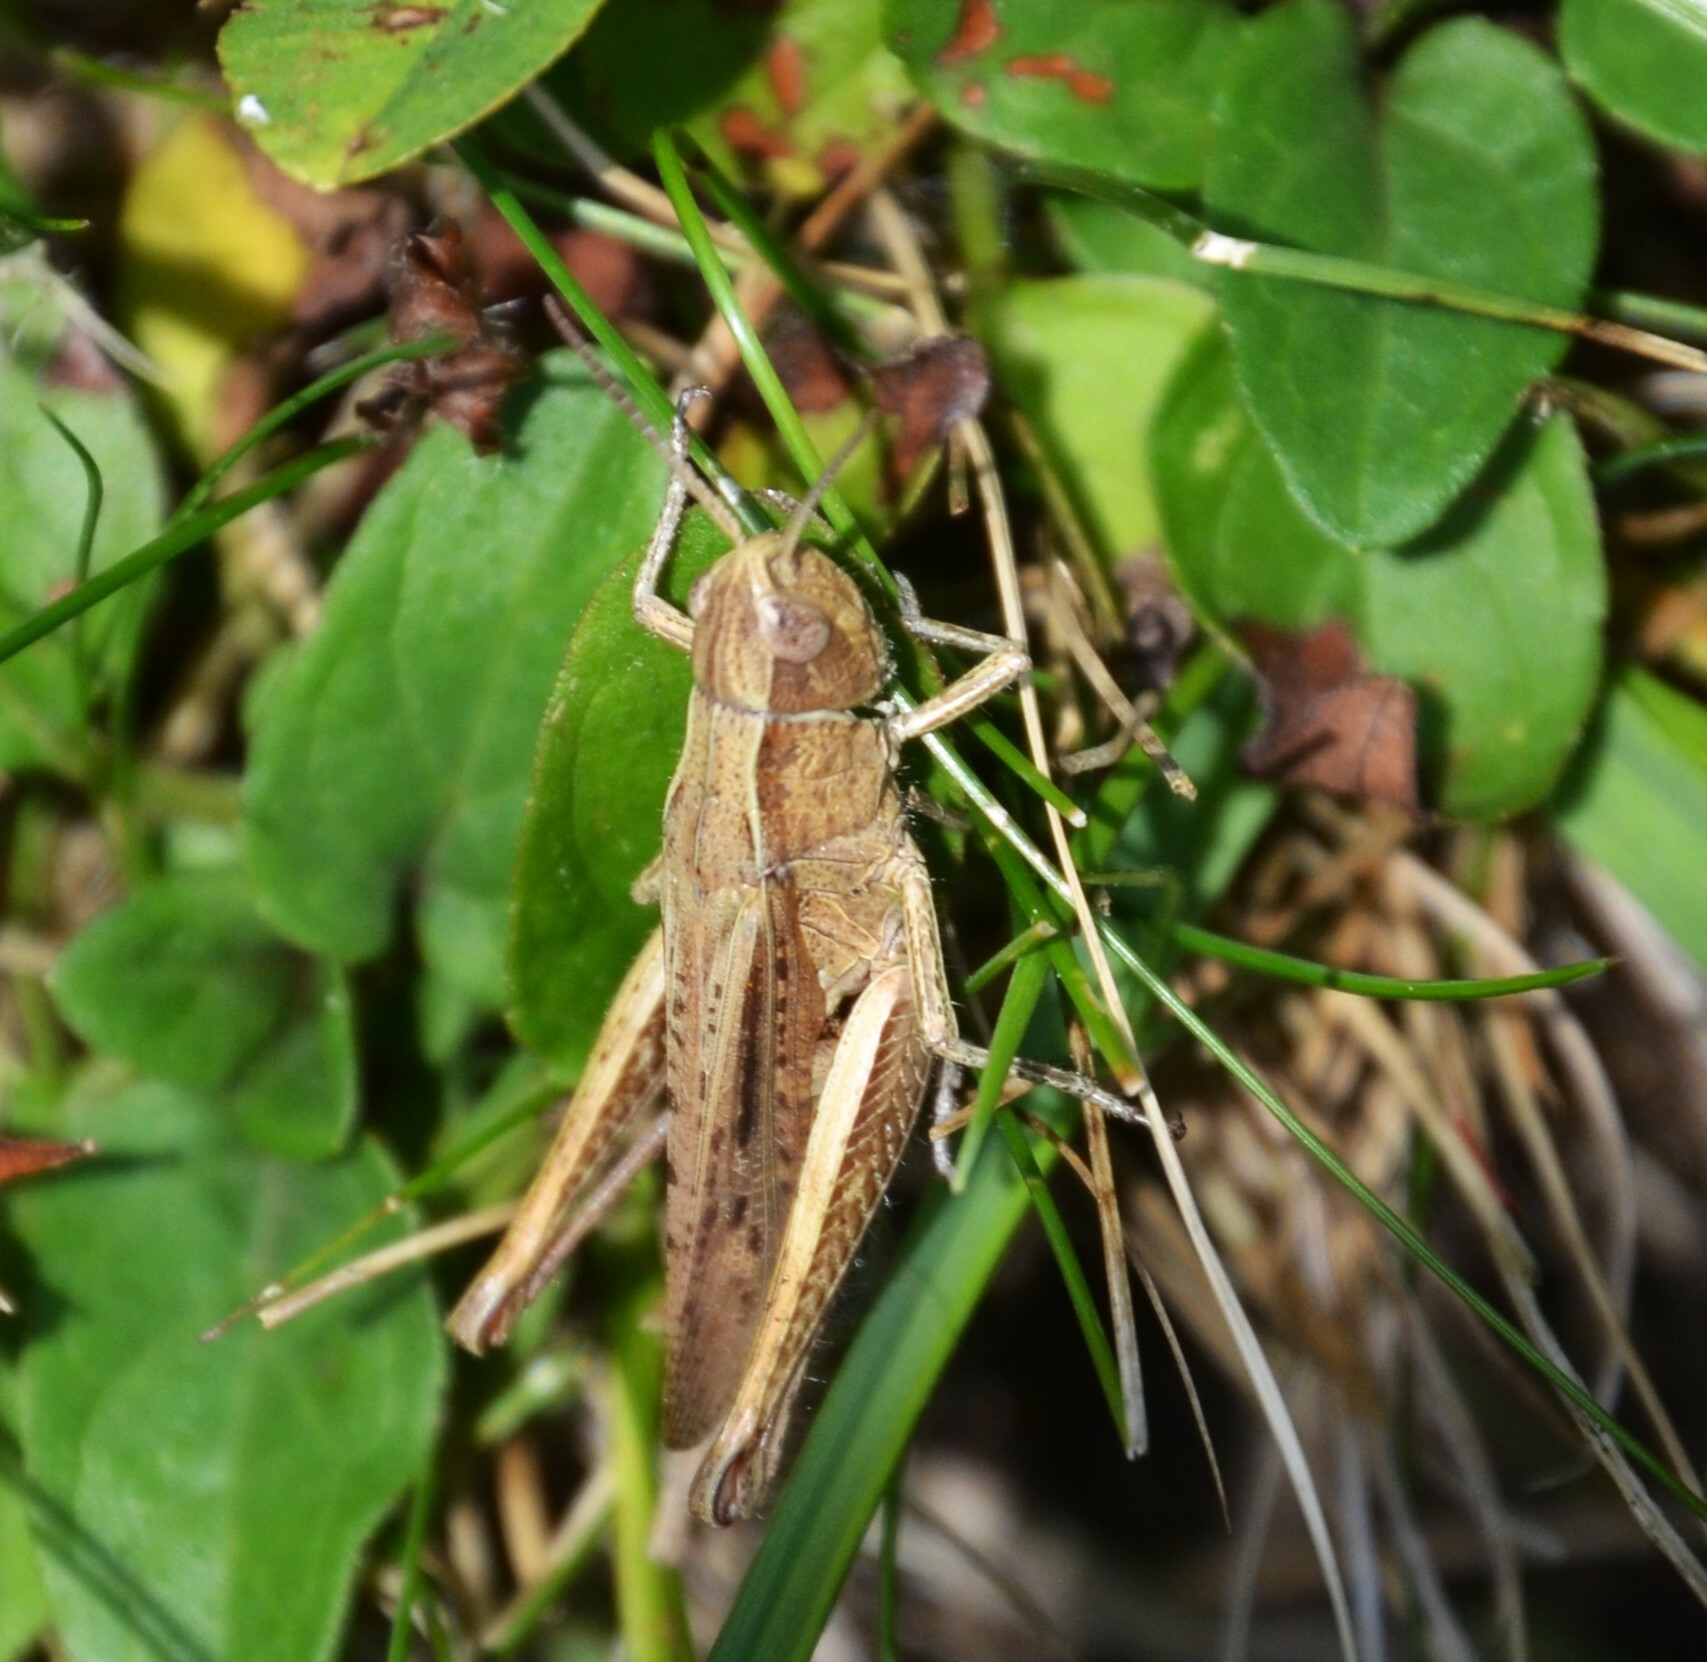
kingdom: Animalia
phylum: Arthropoda
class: Insecta
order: Orthoptera
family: Acrididae
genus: Chorthippus
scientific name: Chorthippus dorsatus
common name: Steppe grasshopper
